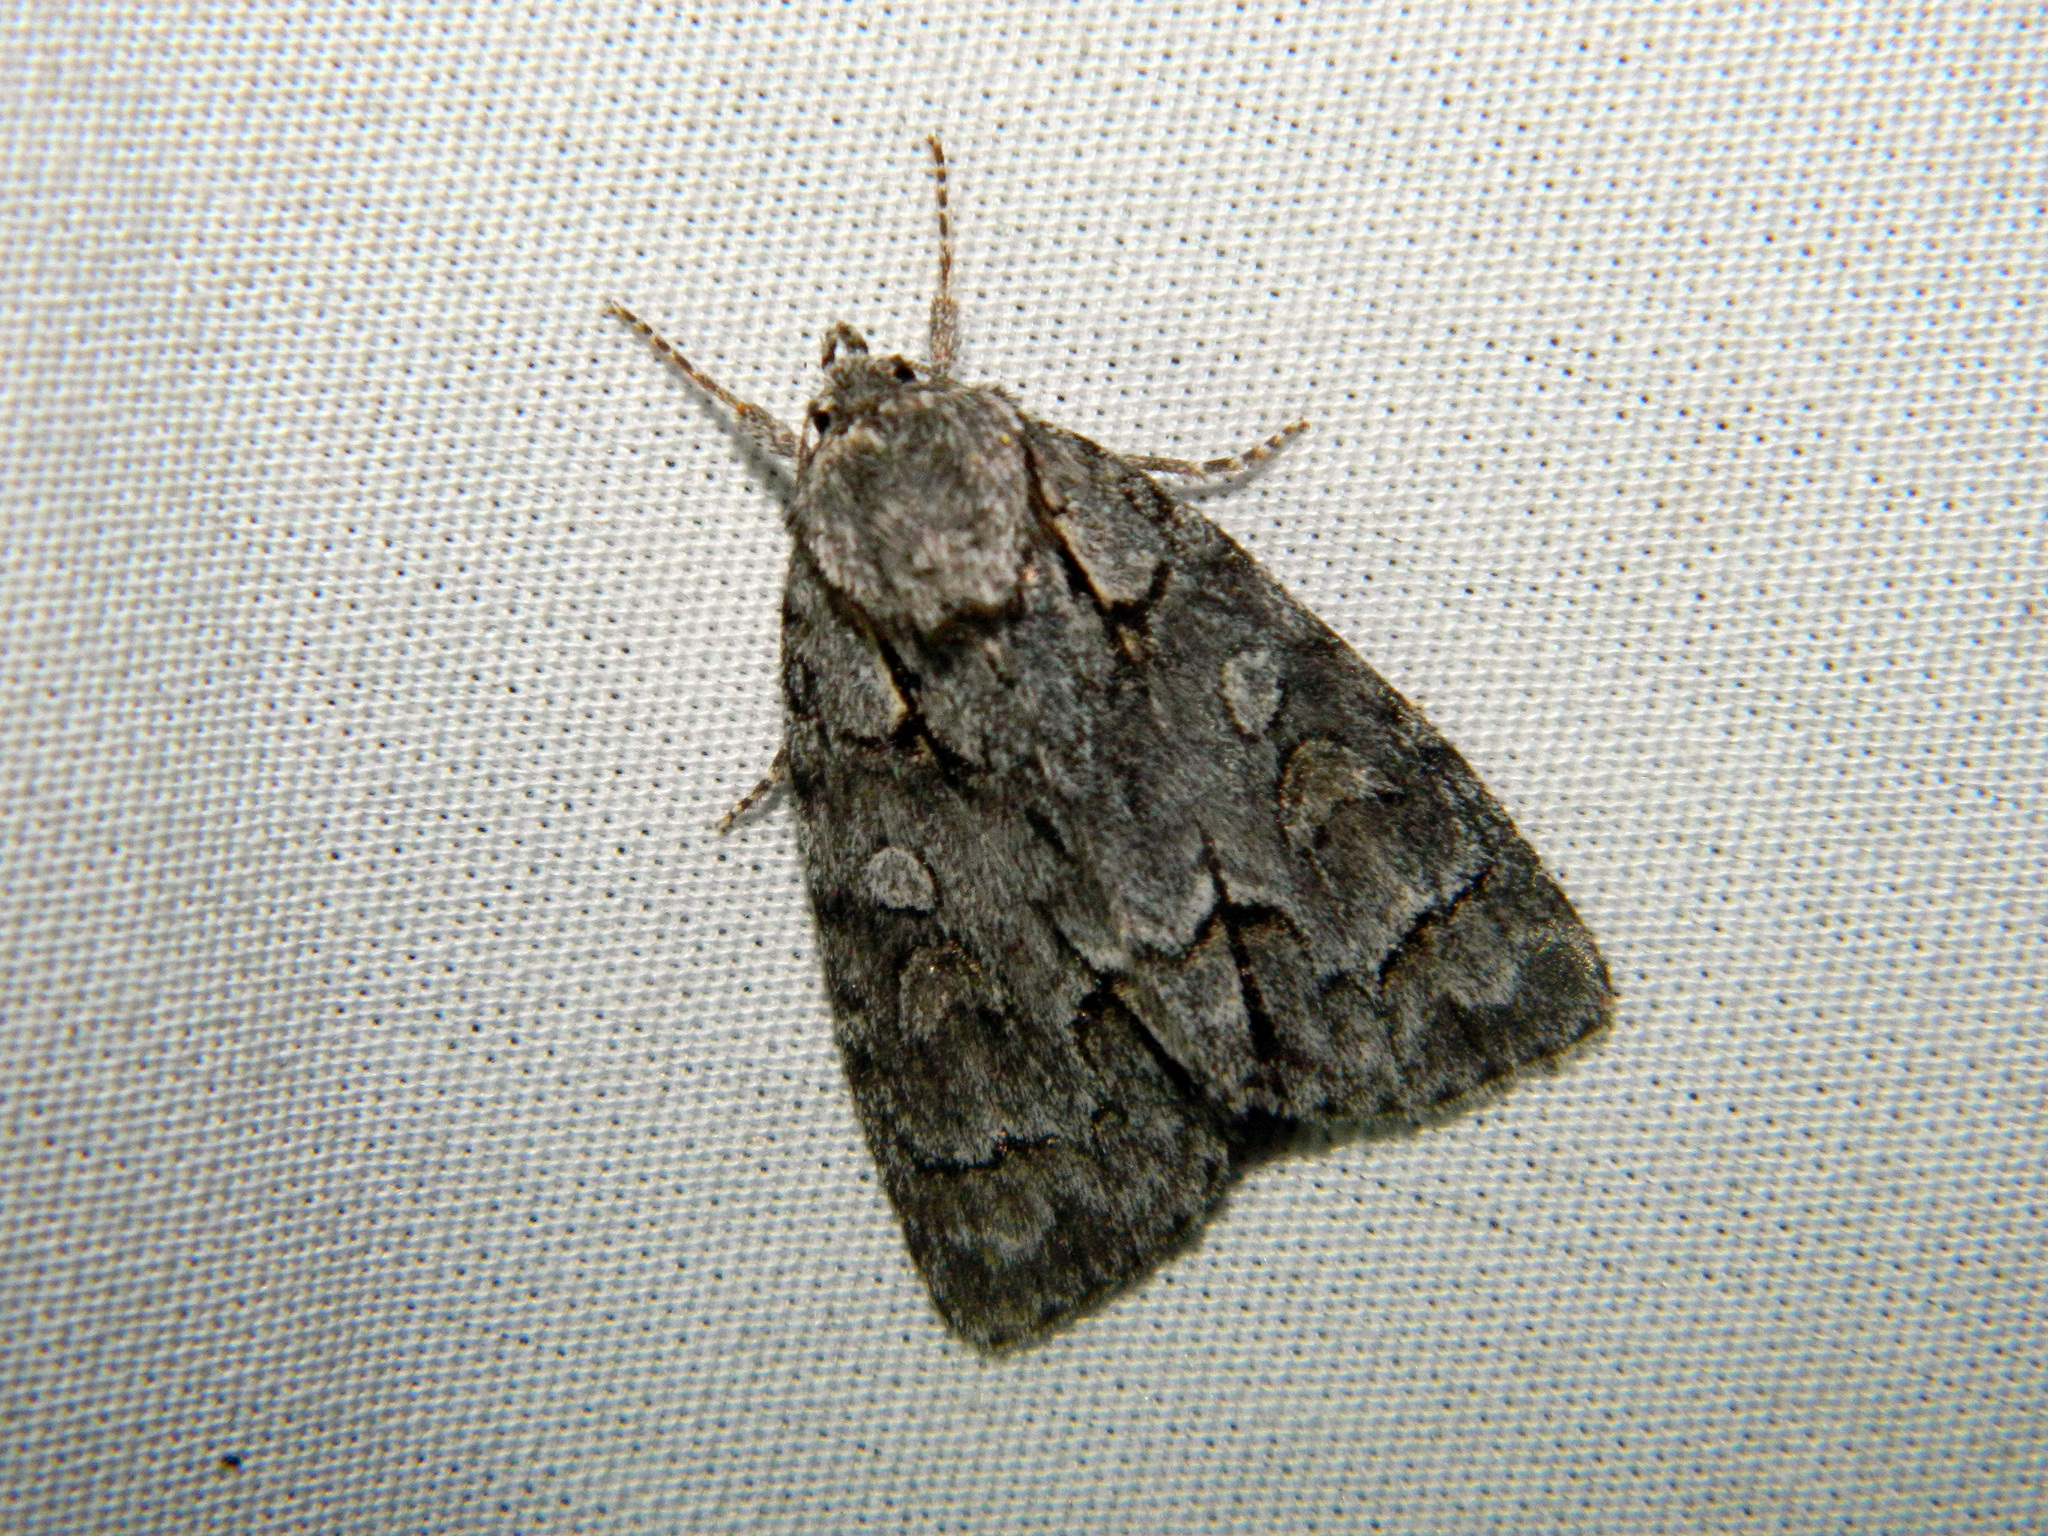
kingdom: Animalia
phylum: Arthropoda
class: Insecta
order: Lepidoptera
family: Noctuidae
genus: Acronicta
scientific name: Acronicta grisea
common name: Gray dagger
